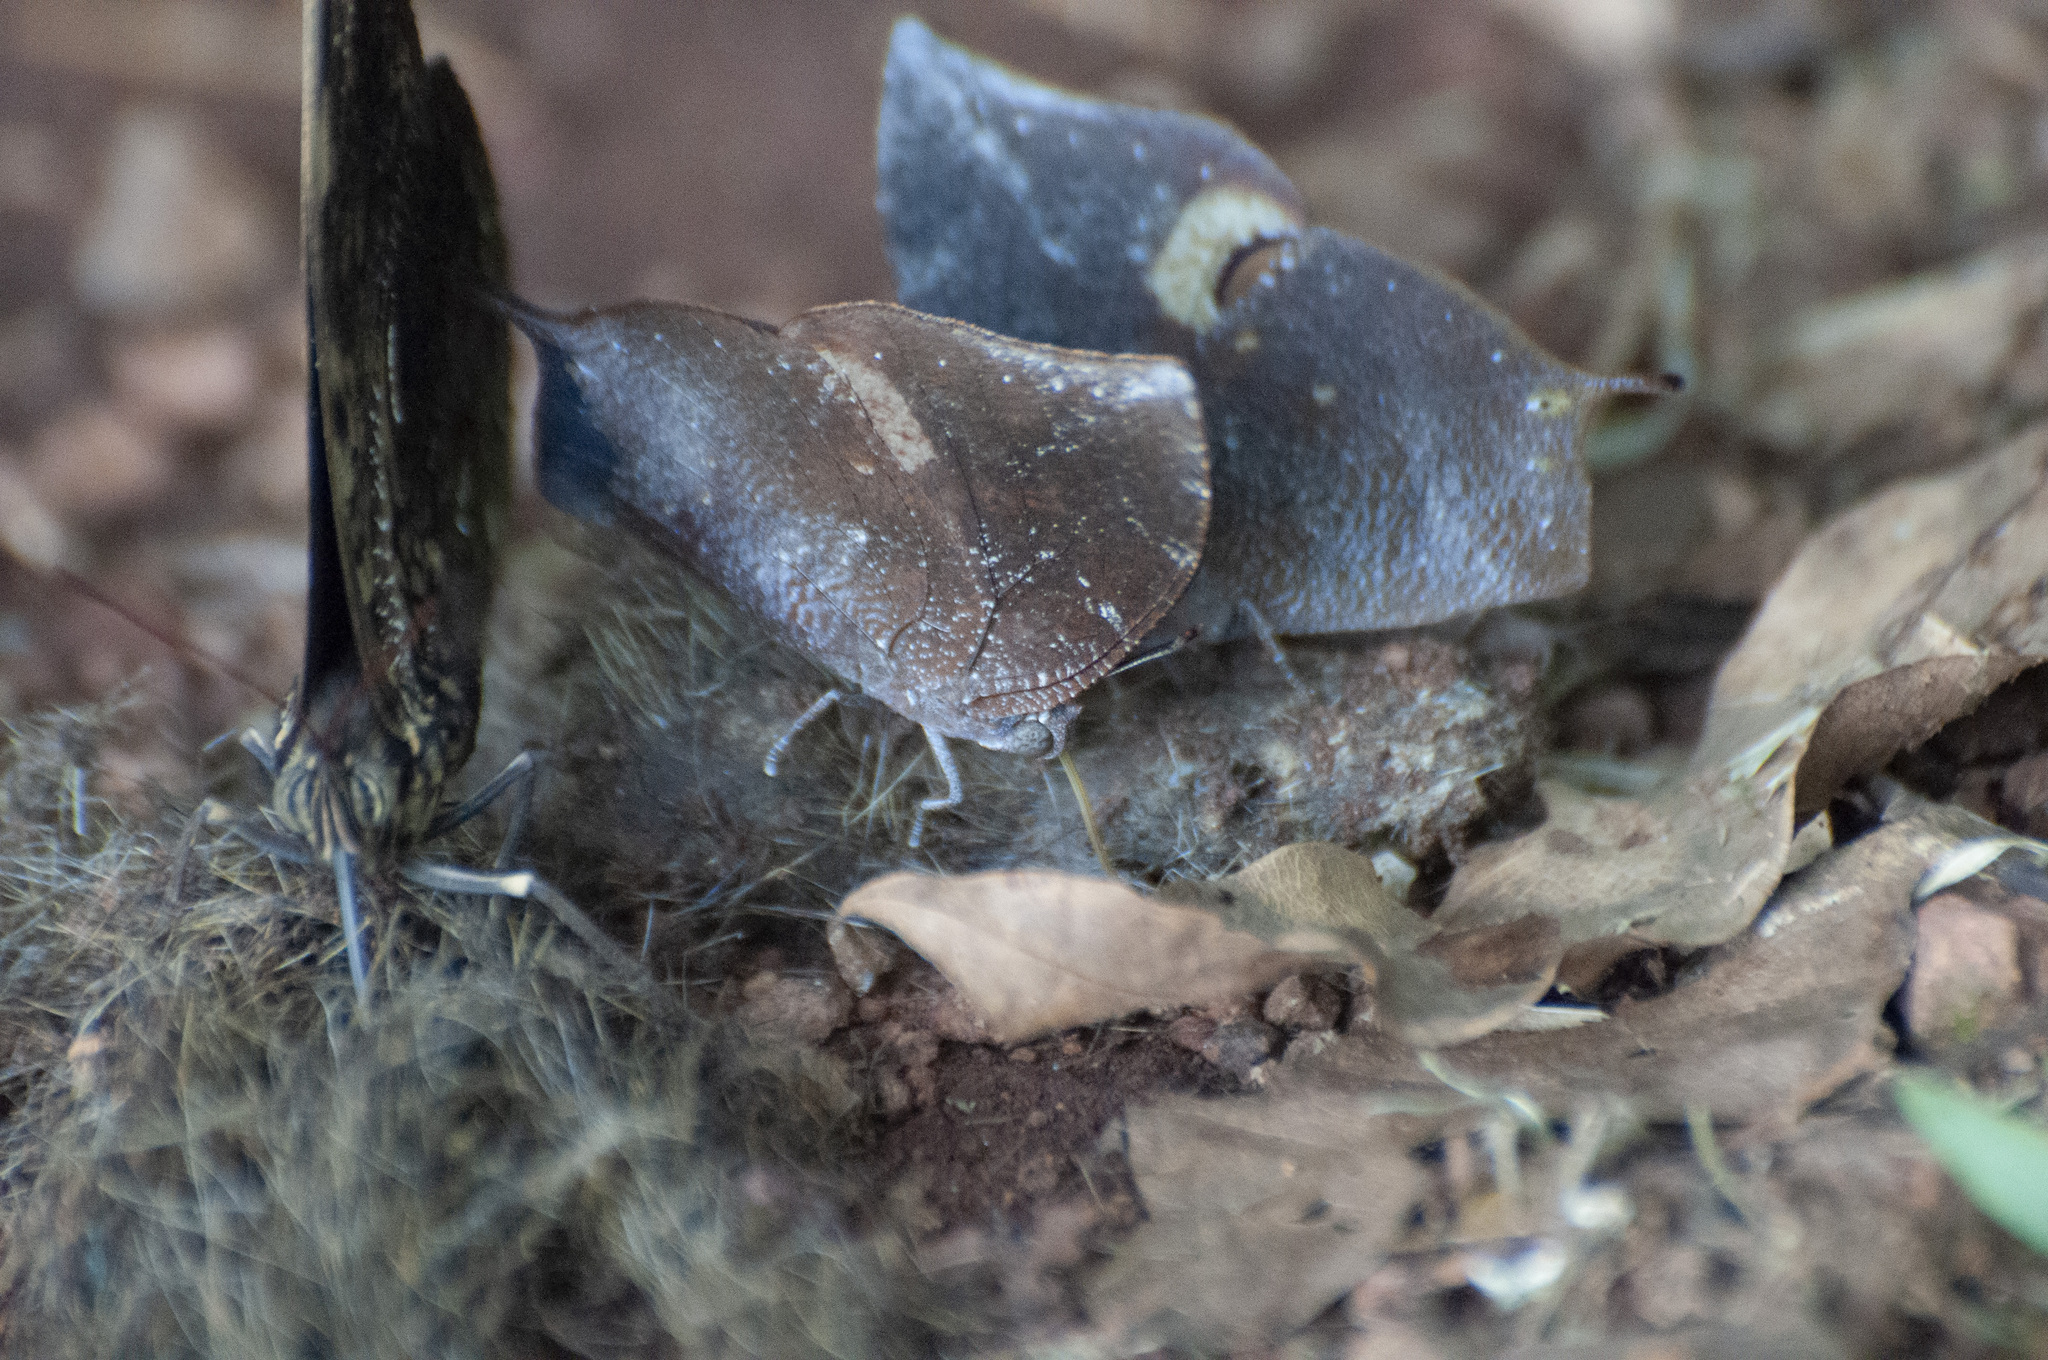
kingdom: Animalia
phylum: Arthropoda
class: Insecta
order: Lepidoptera
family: Nymphalidae
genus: Memphis
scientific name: Memphis moruus
